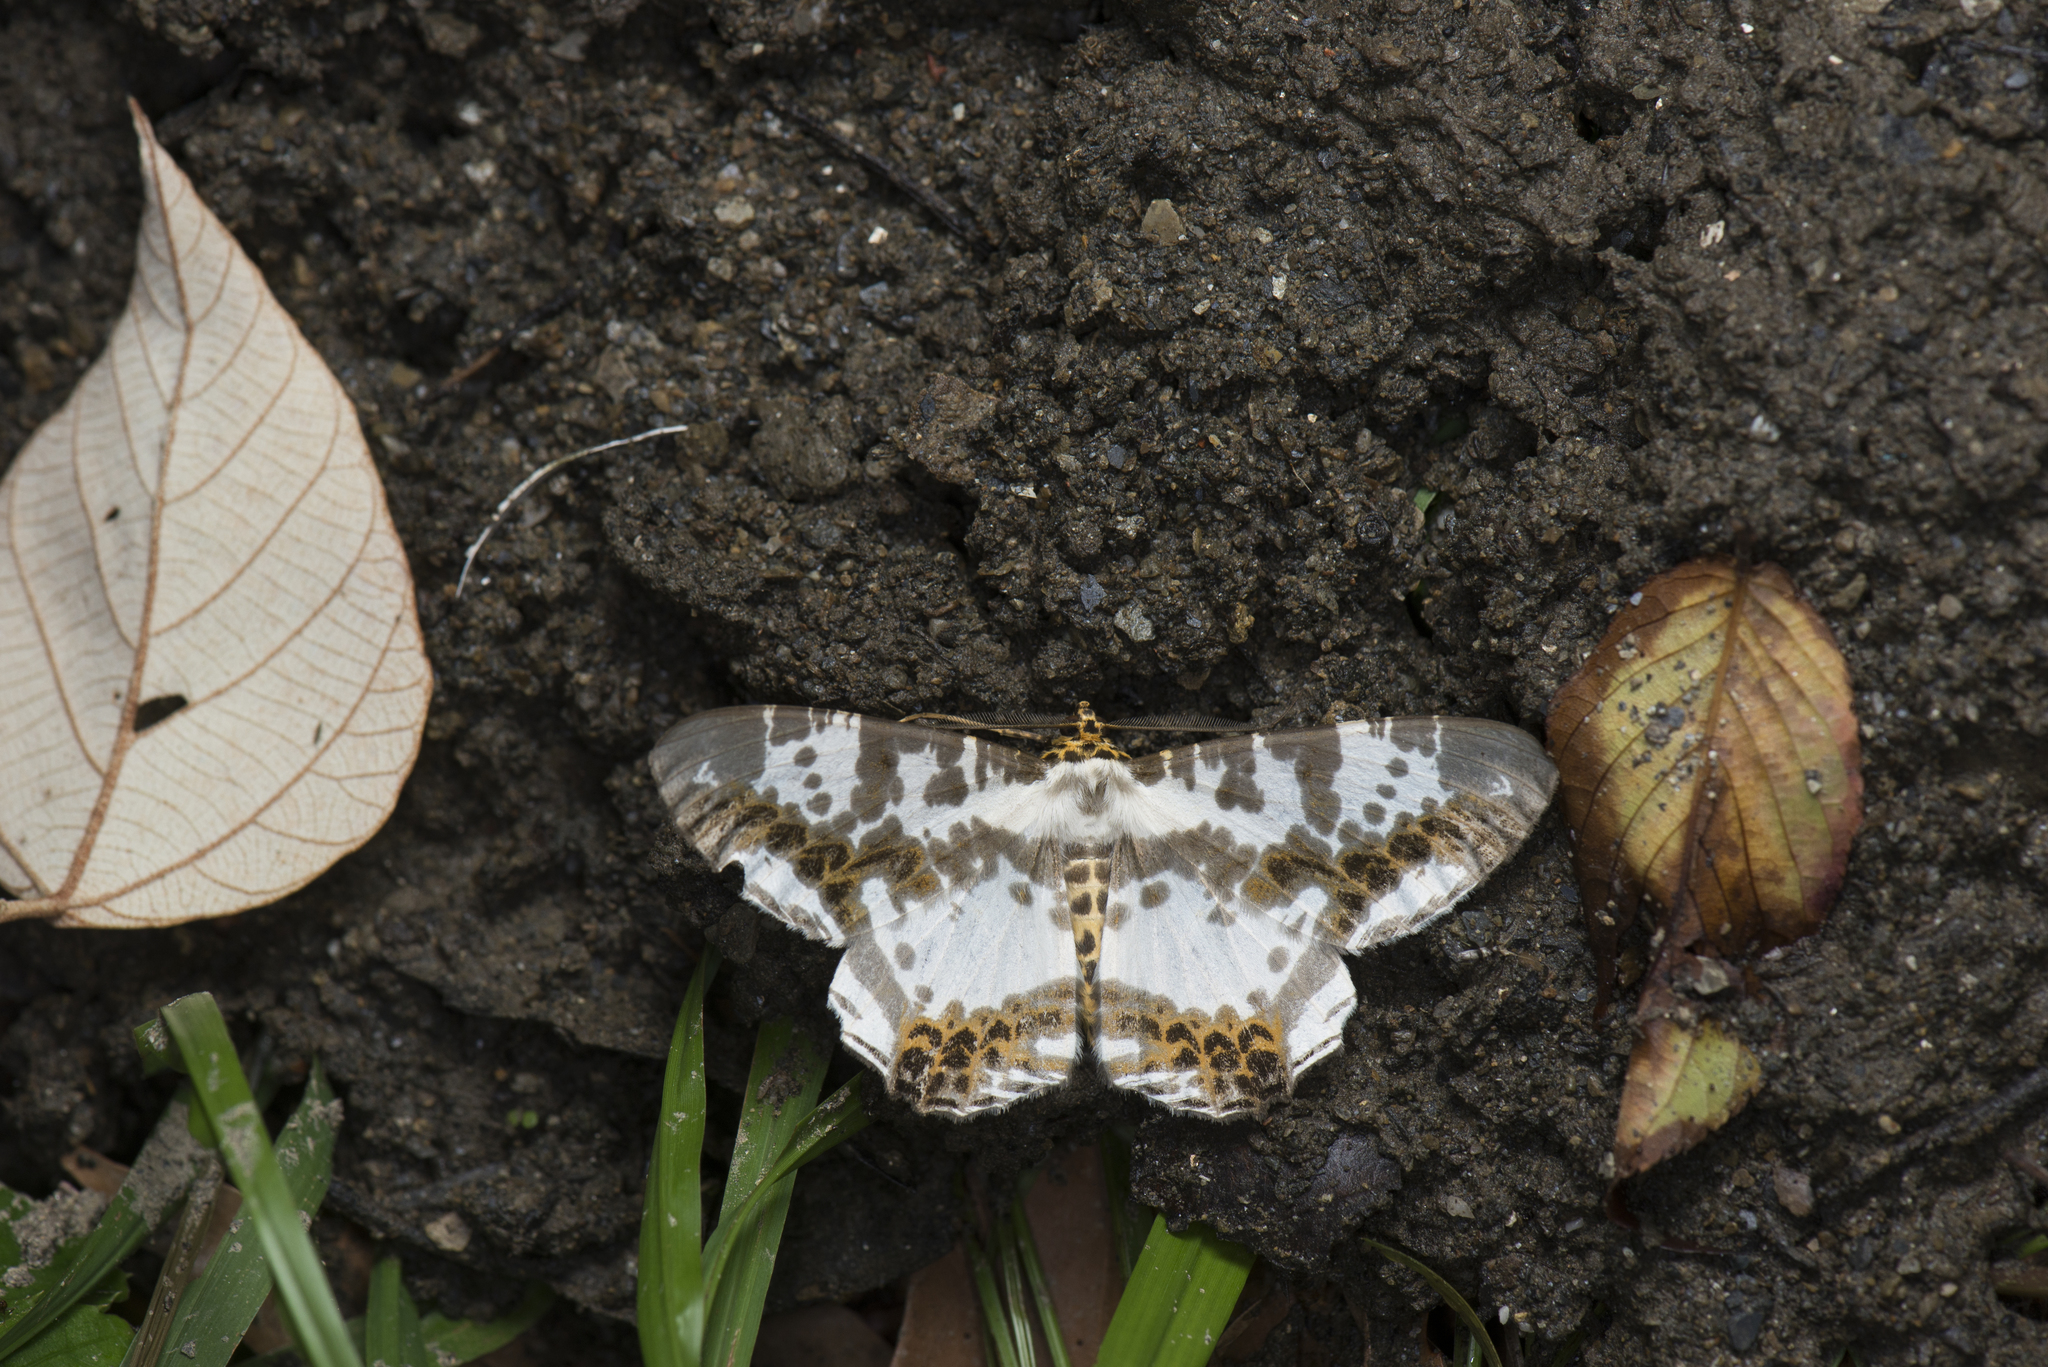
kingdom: Animalia
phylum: Arthropoda
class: Insecta
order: Lepidoptera
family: Geometridae
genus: Chorodna
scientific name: Chorodna moorei
